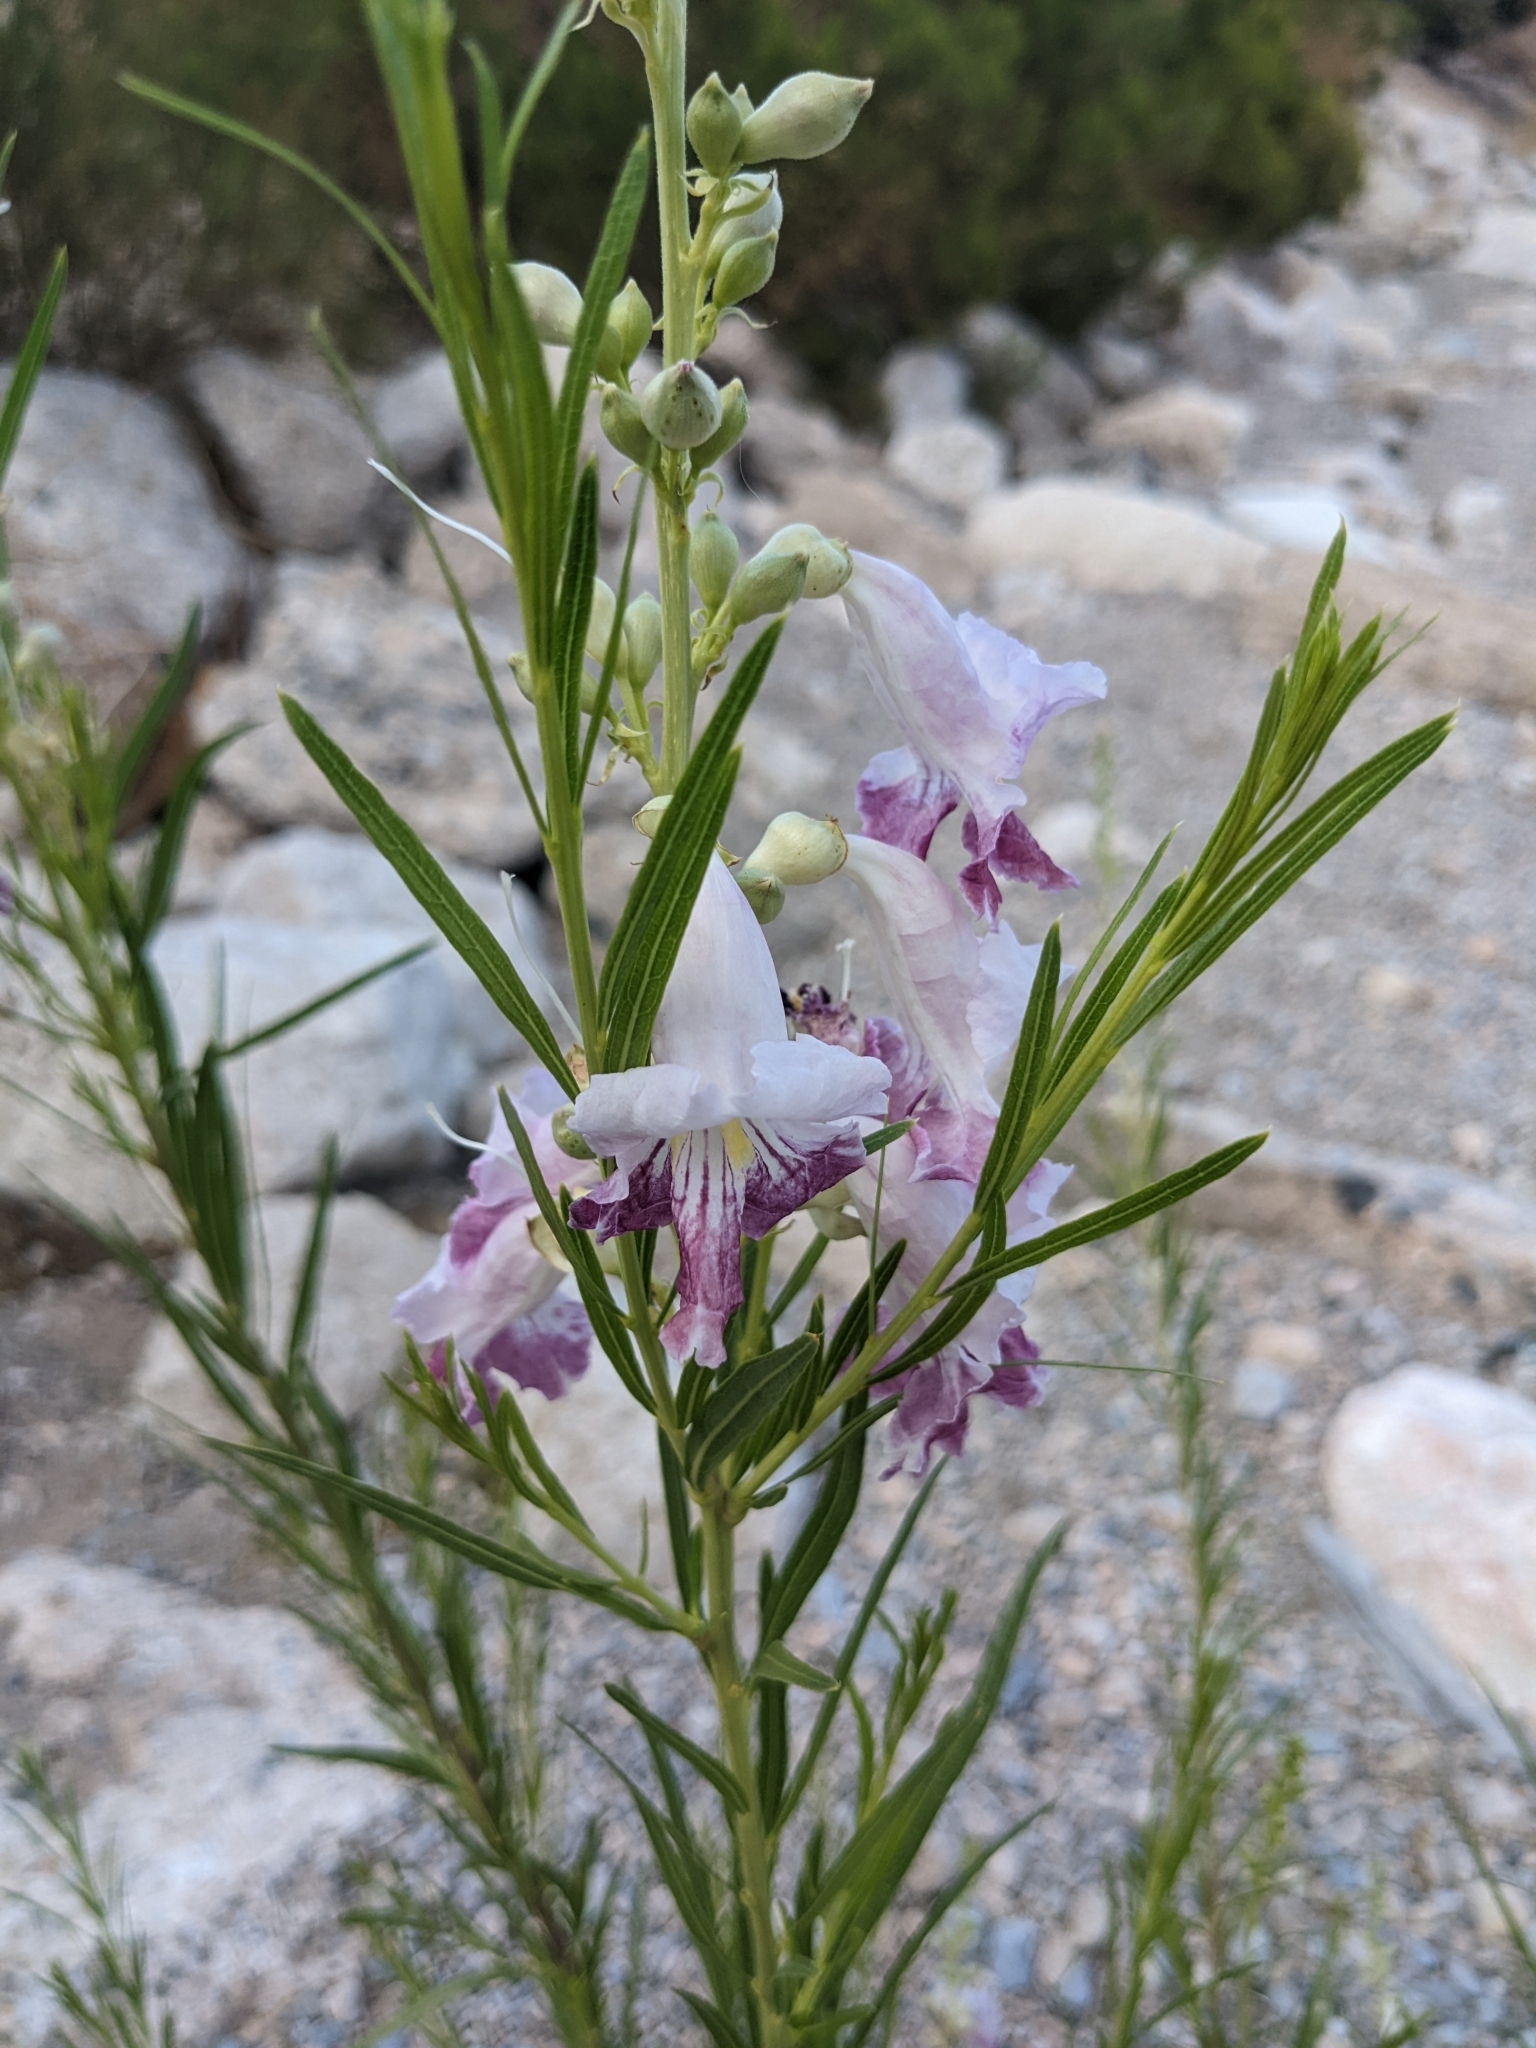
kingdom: Plantae
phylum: Tracheophyta
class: Magnoliopsida
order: Lamiales
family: Bignoniaceae
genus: Chilopsis
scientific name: Chilopsis linearis
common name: Desert-willow
